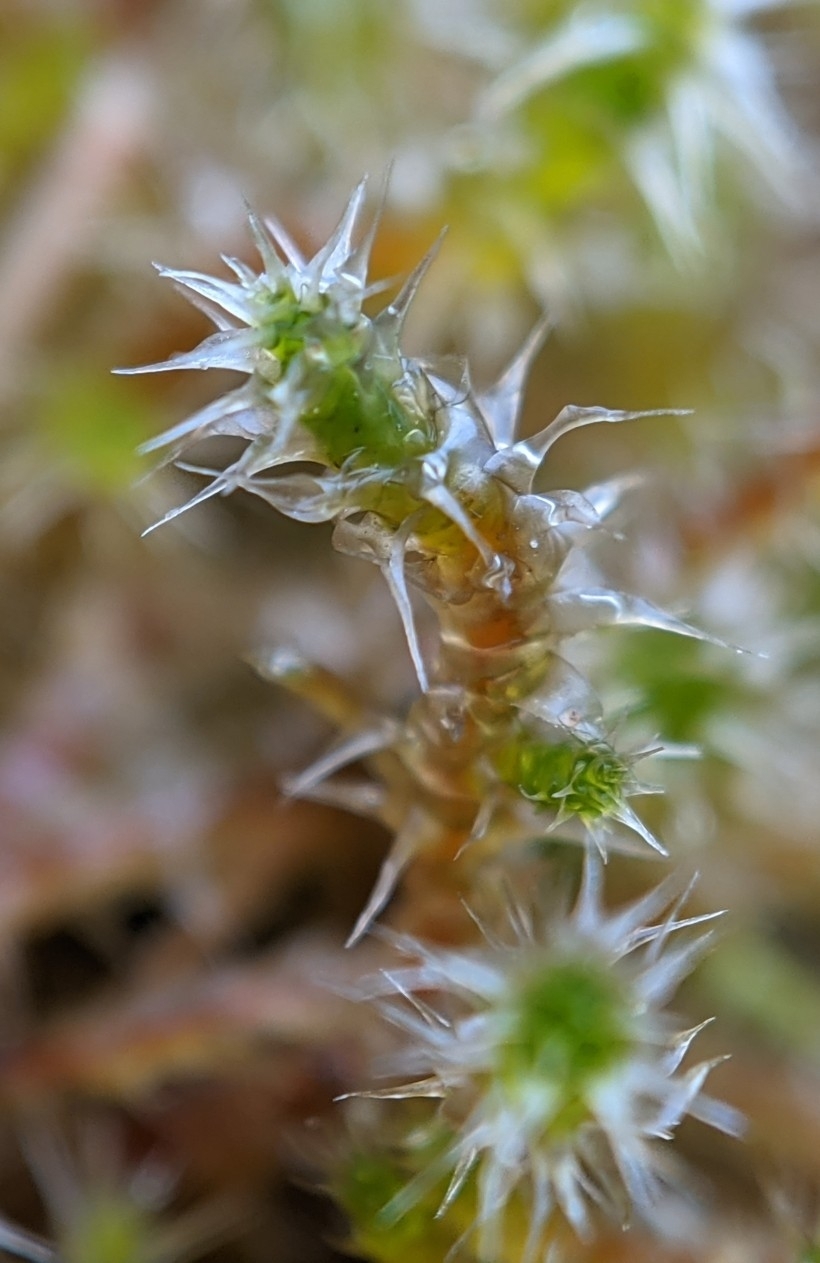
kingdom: Plantae
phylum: Bryophyta
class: Bryopsida
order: Hypnales
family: Hylocomiaceae
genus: Rhytidiadelphus
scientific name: Rhytidiadelphus squarrosus
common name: Springy turf-moss
